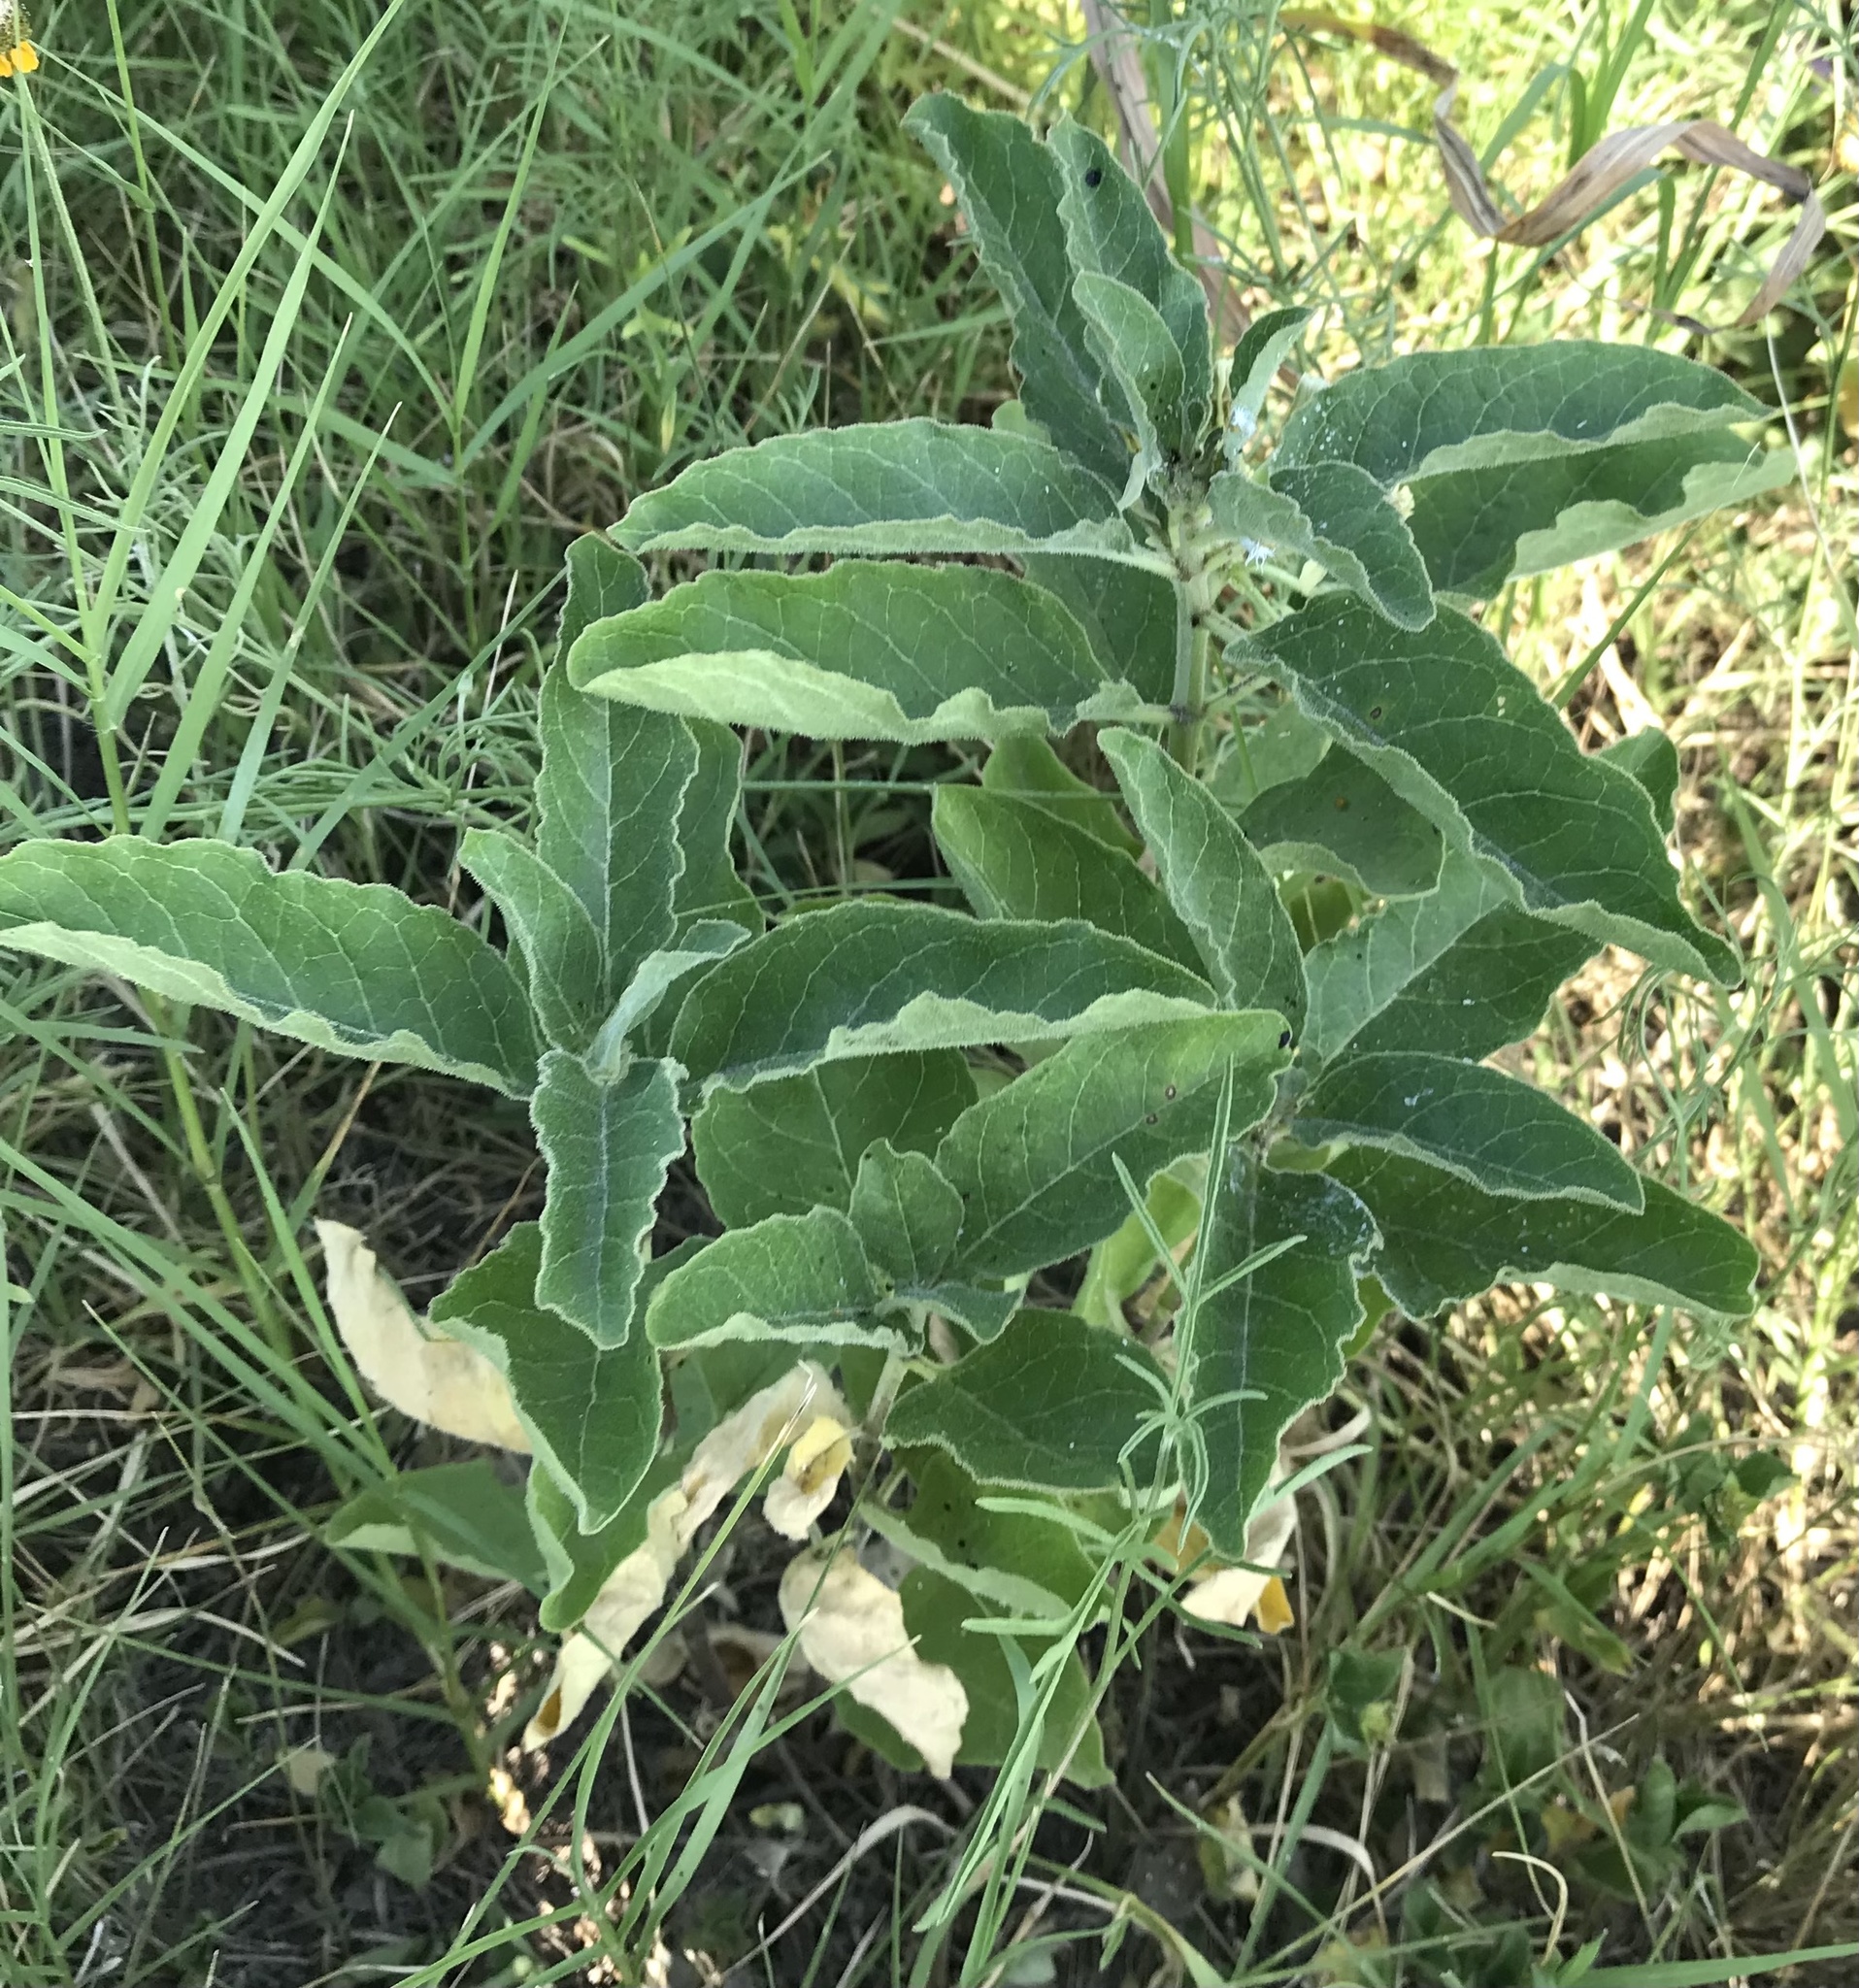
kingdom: Plantae
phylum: Tracheophyta
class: Magnoliopsida
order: Gentianales
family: Apocynaceae
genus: Asclepias
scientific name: Asclepias oenotheroides
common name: Zizotes milkweed
